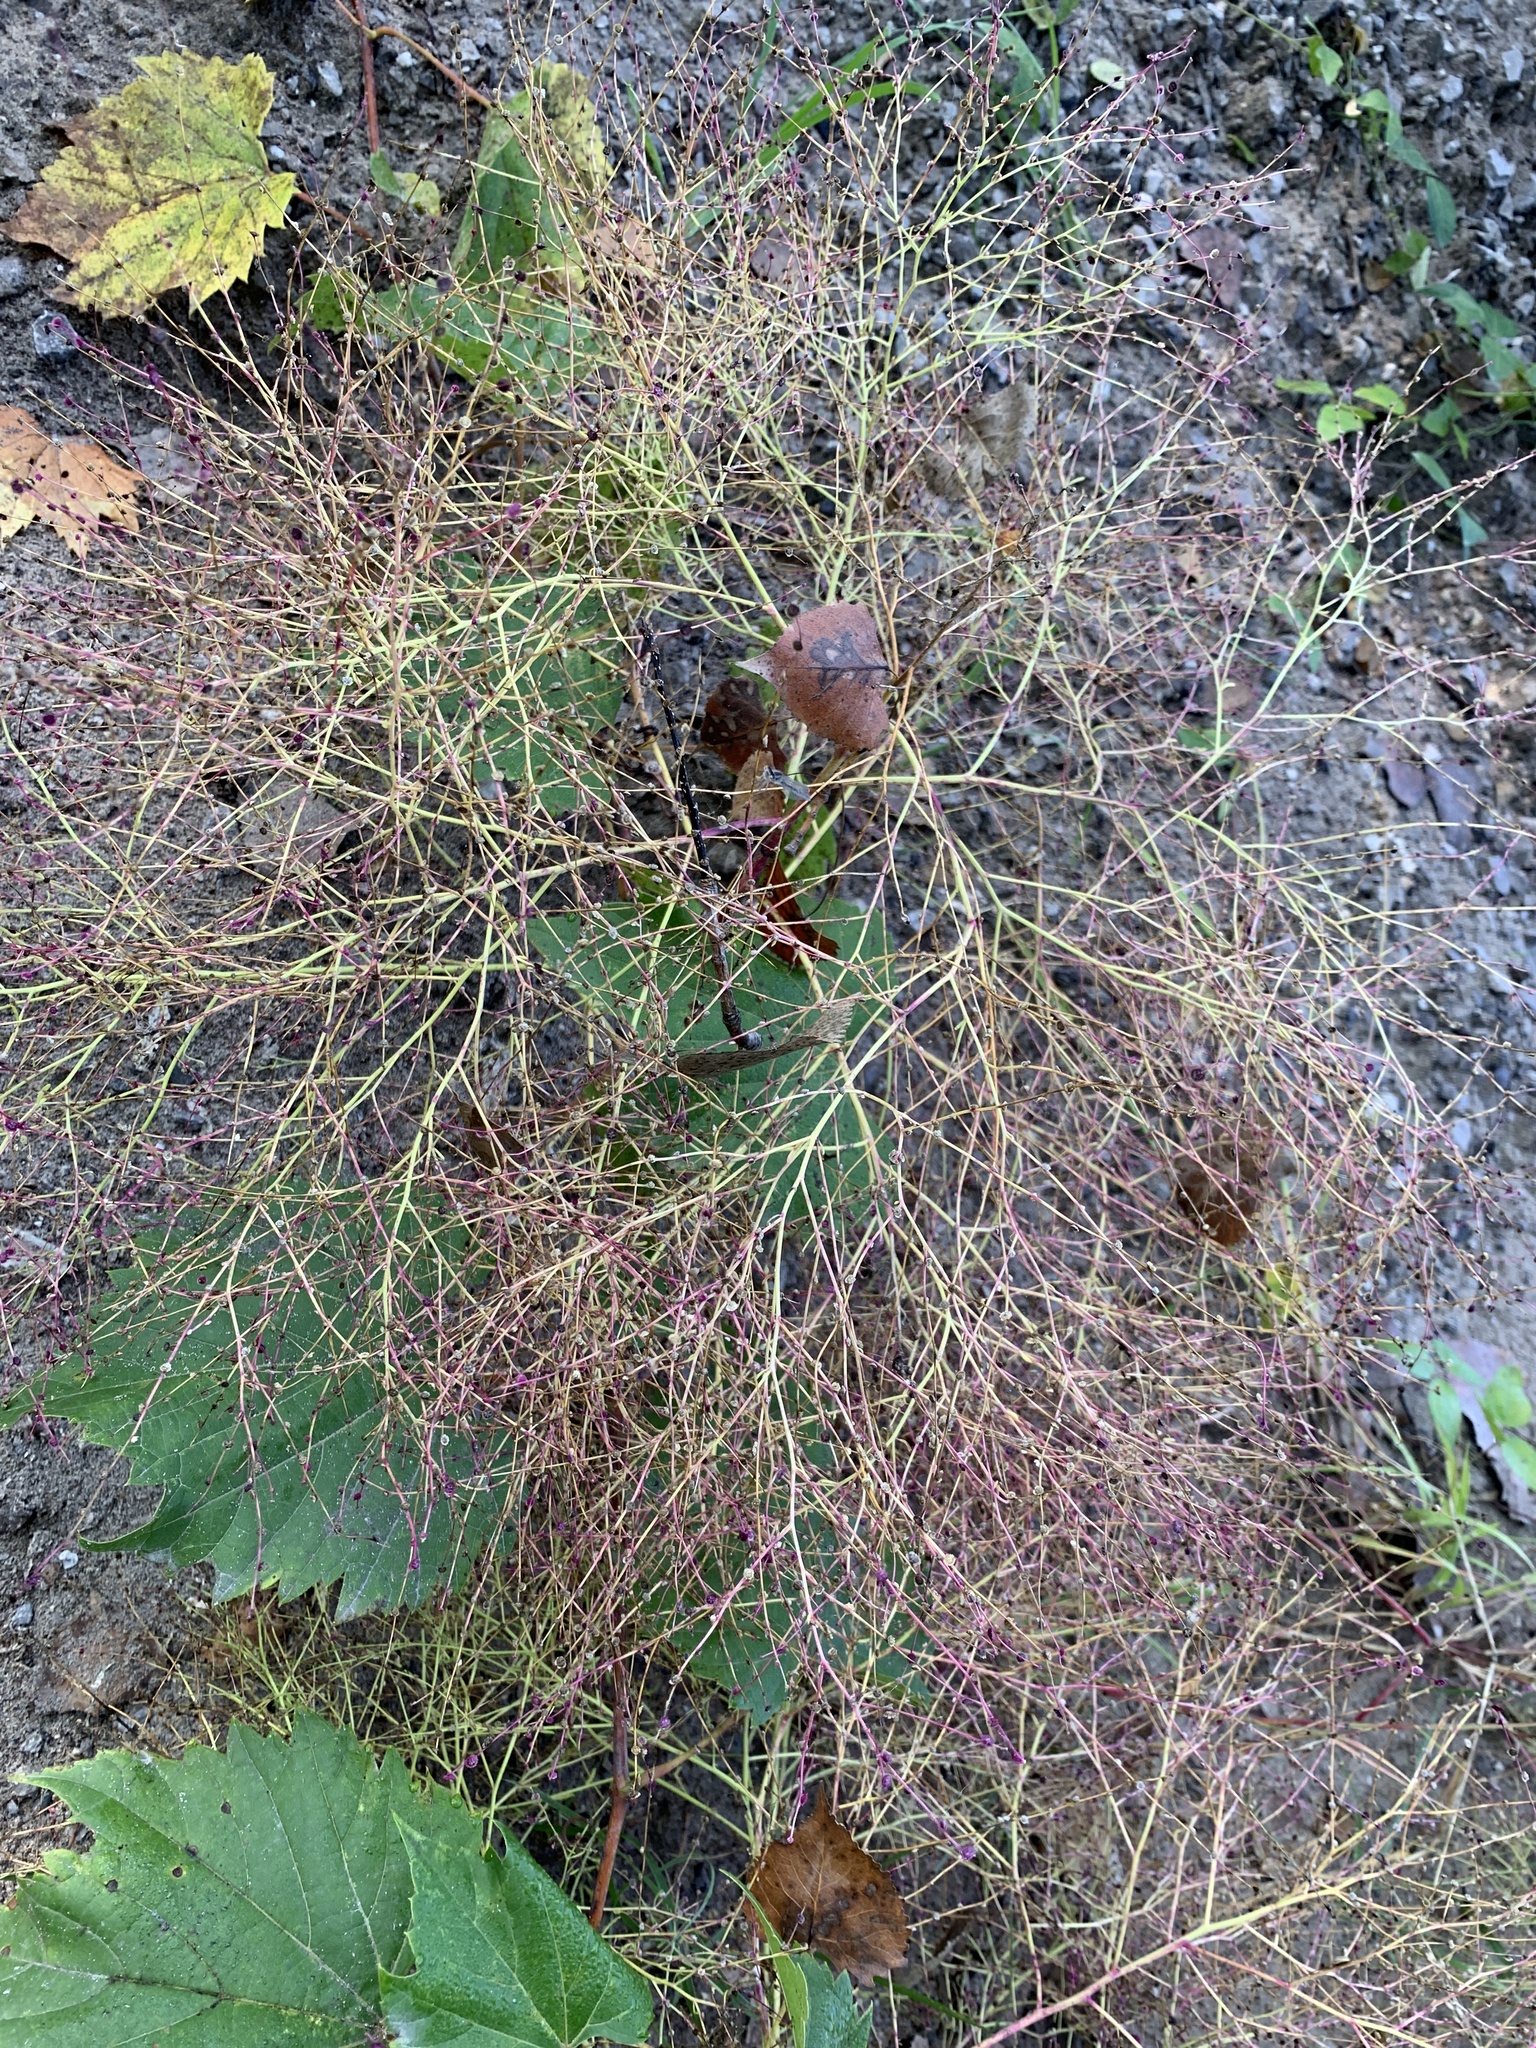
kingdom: Plantae
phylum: Tracheophyta
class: Magnoliopsida
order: Caryophyllales
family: Amaranthaceae
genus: Dysphania
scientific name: Dysphania atriplicifolia
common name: Plains tumbleweed
